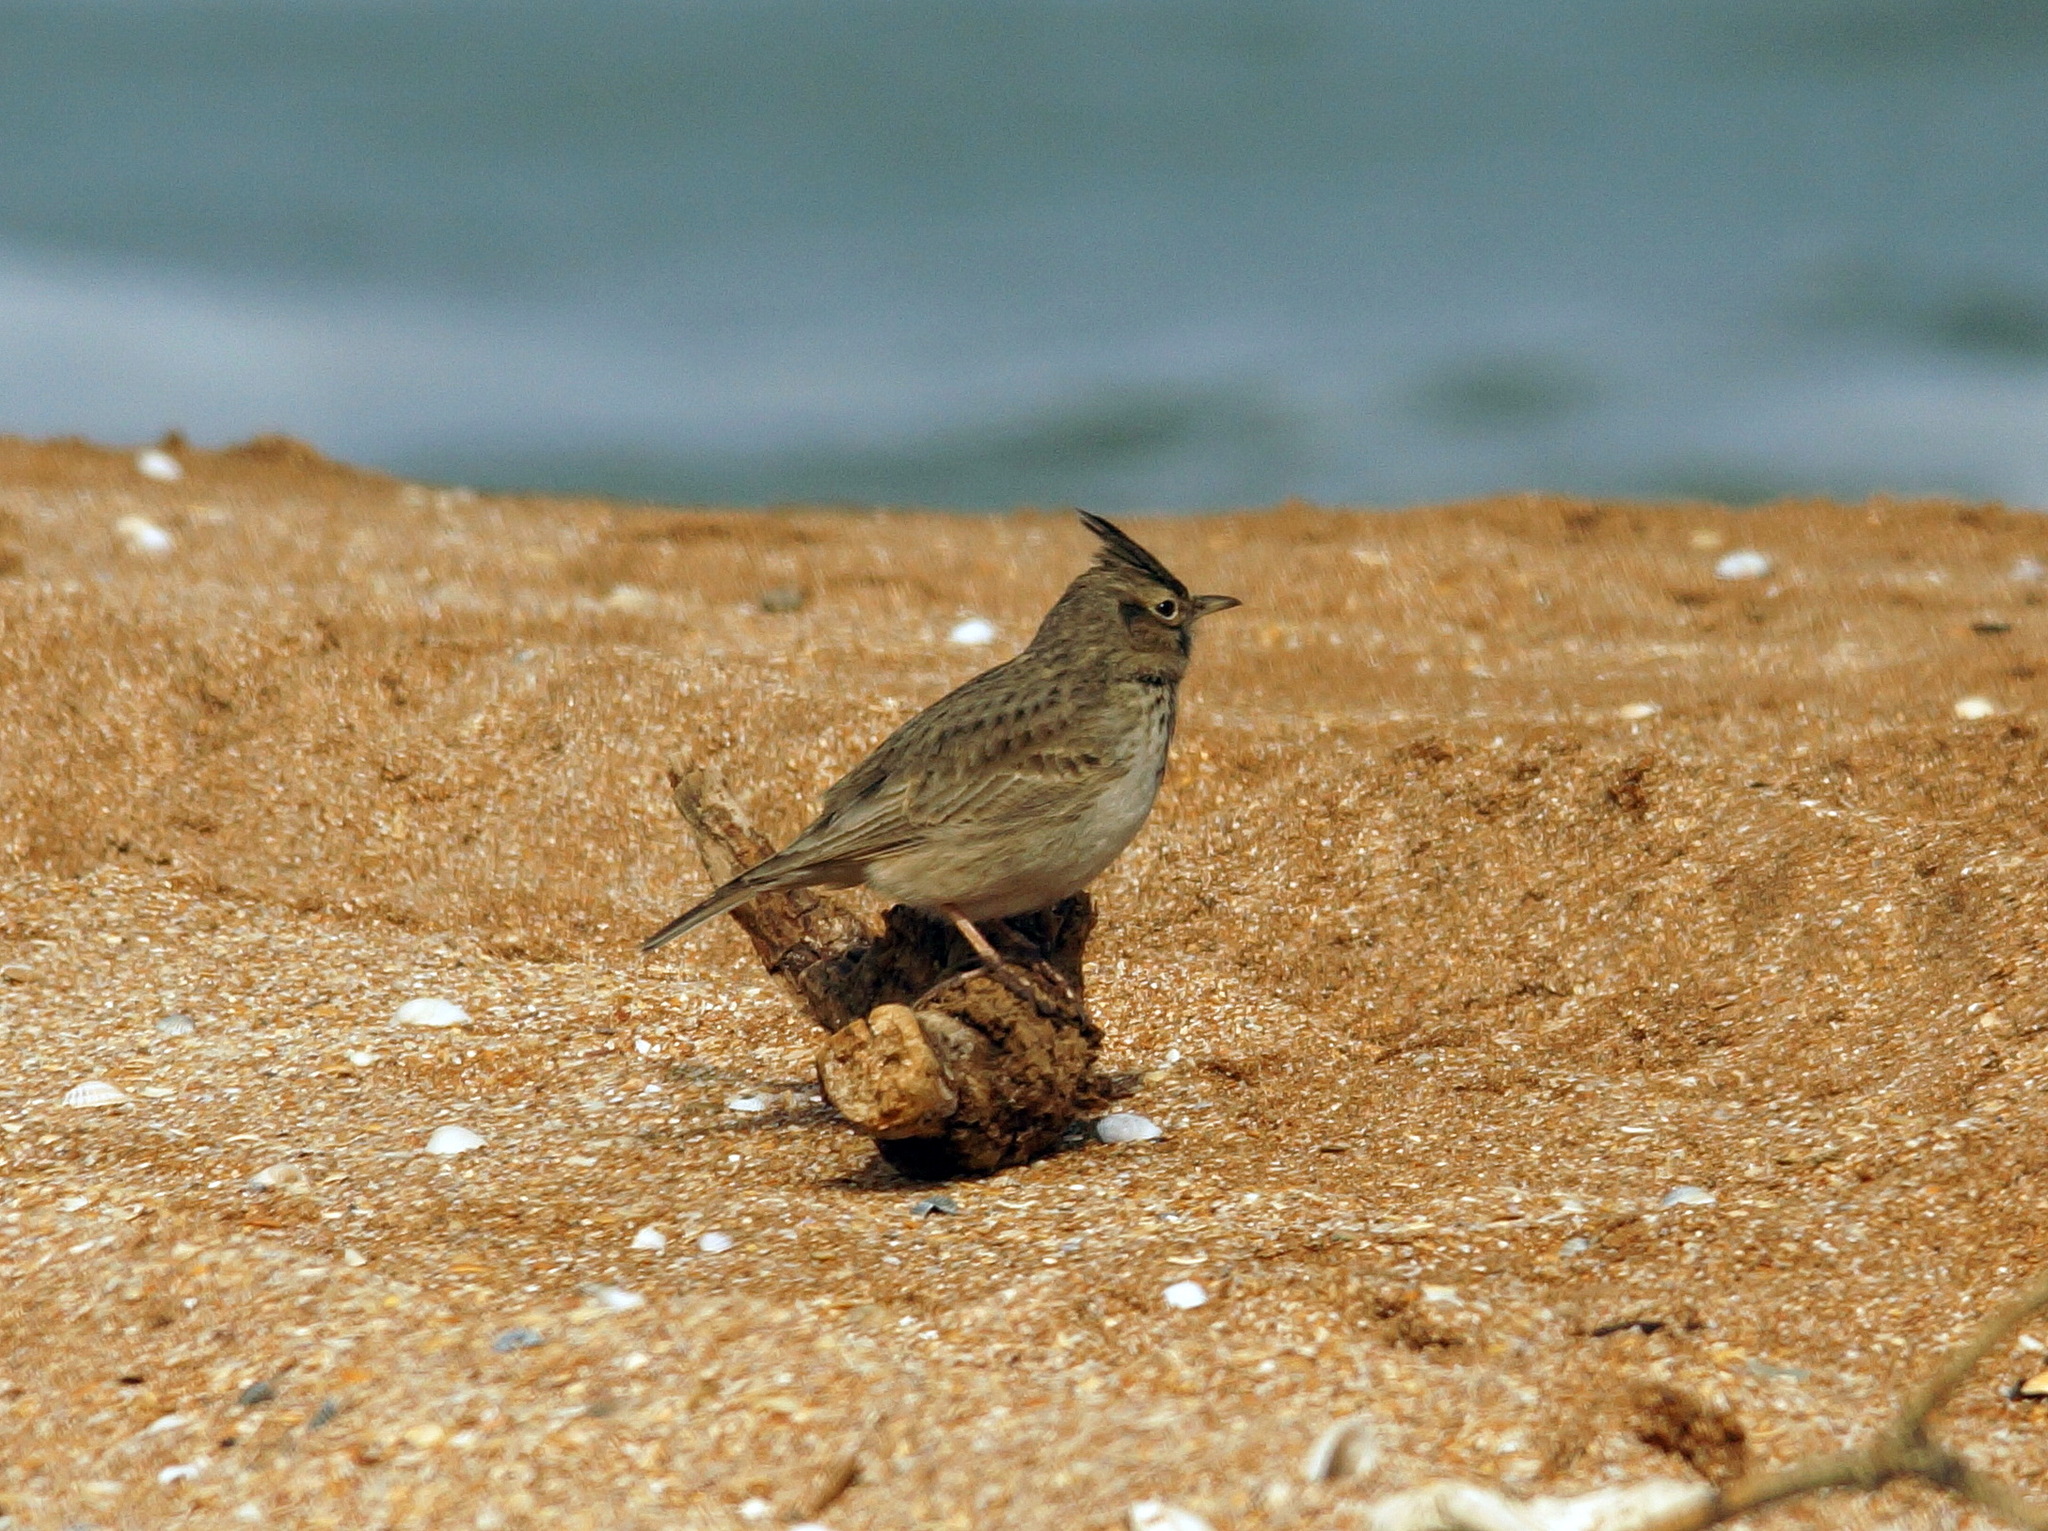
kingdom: Animalia
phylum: Chordata
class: Aves
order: Passeriformes
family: Alaudidae
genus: Galerida
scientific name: Galerida cristata
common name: Crested lark
